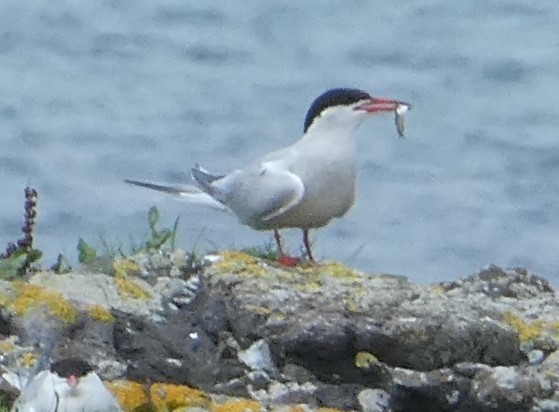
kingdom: Animalia
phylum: Chordata
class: Aves
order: Charadriiformes
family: Laridae
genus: Sterna
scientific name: Sterna hirundo
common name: Common tern
